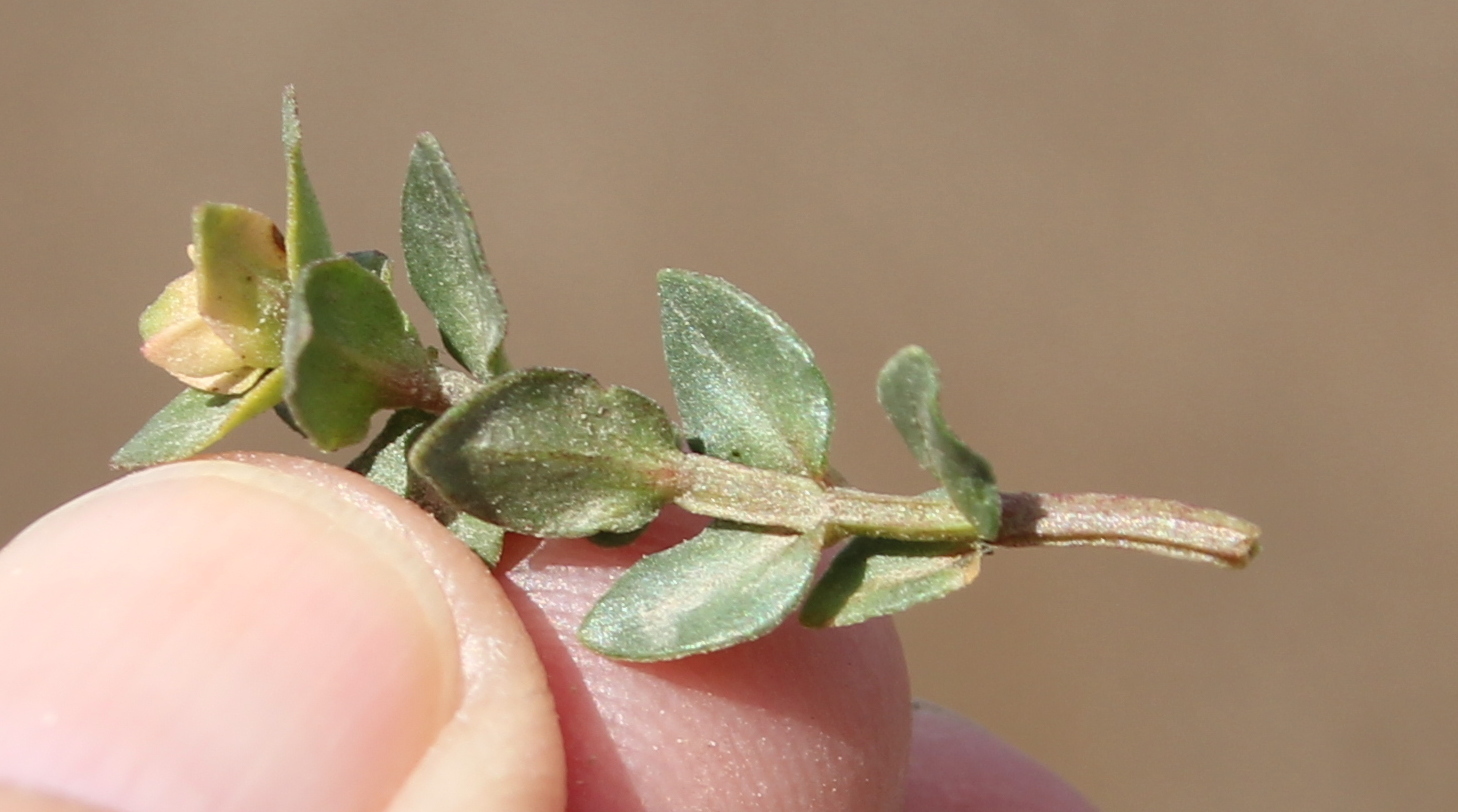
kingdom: Plantae
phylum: Tracheophyta
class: Magnoliopsida
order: Ericales
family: Primulaceae
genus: Lysimachia
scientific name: Lysimachia arvensis
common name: Scarlet pimpernel
